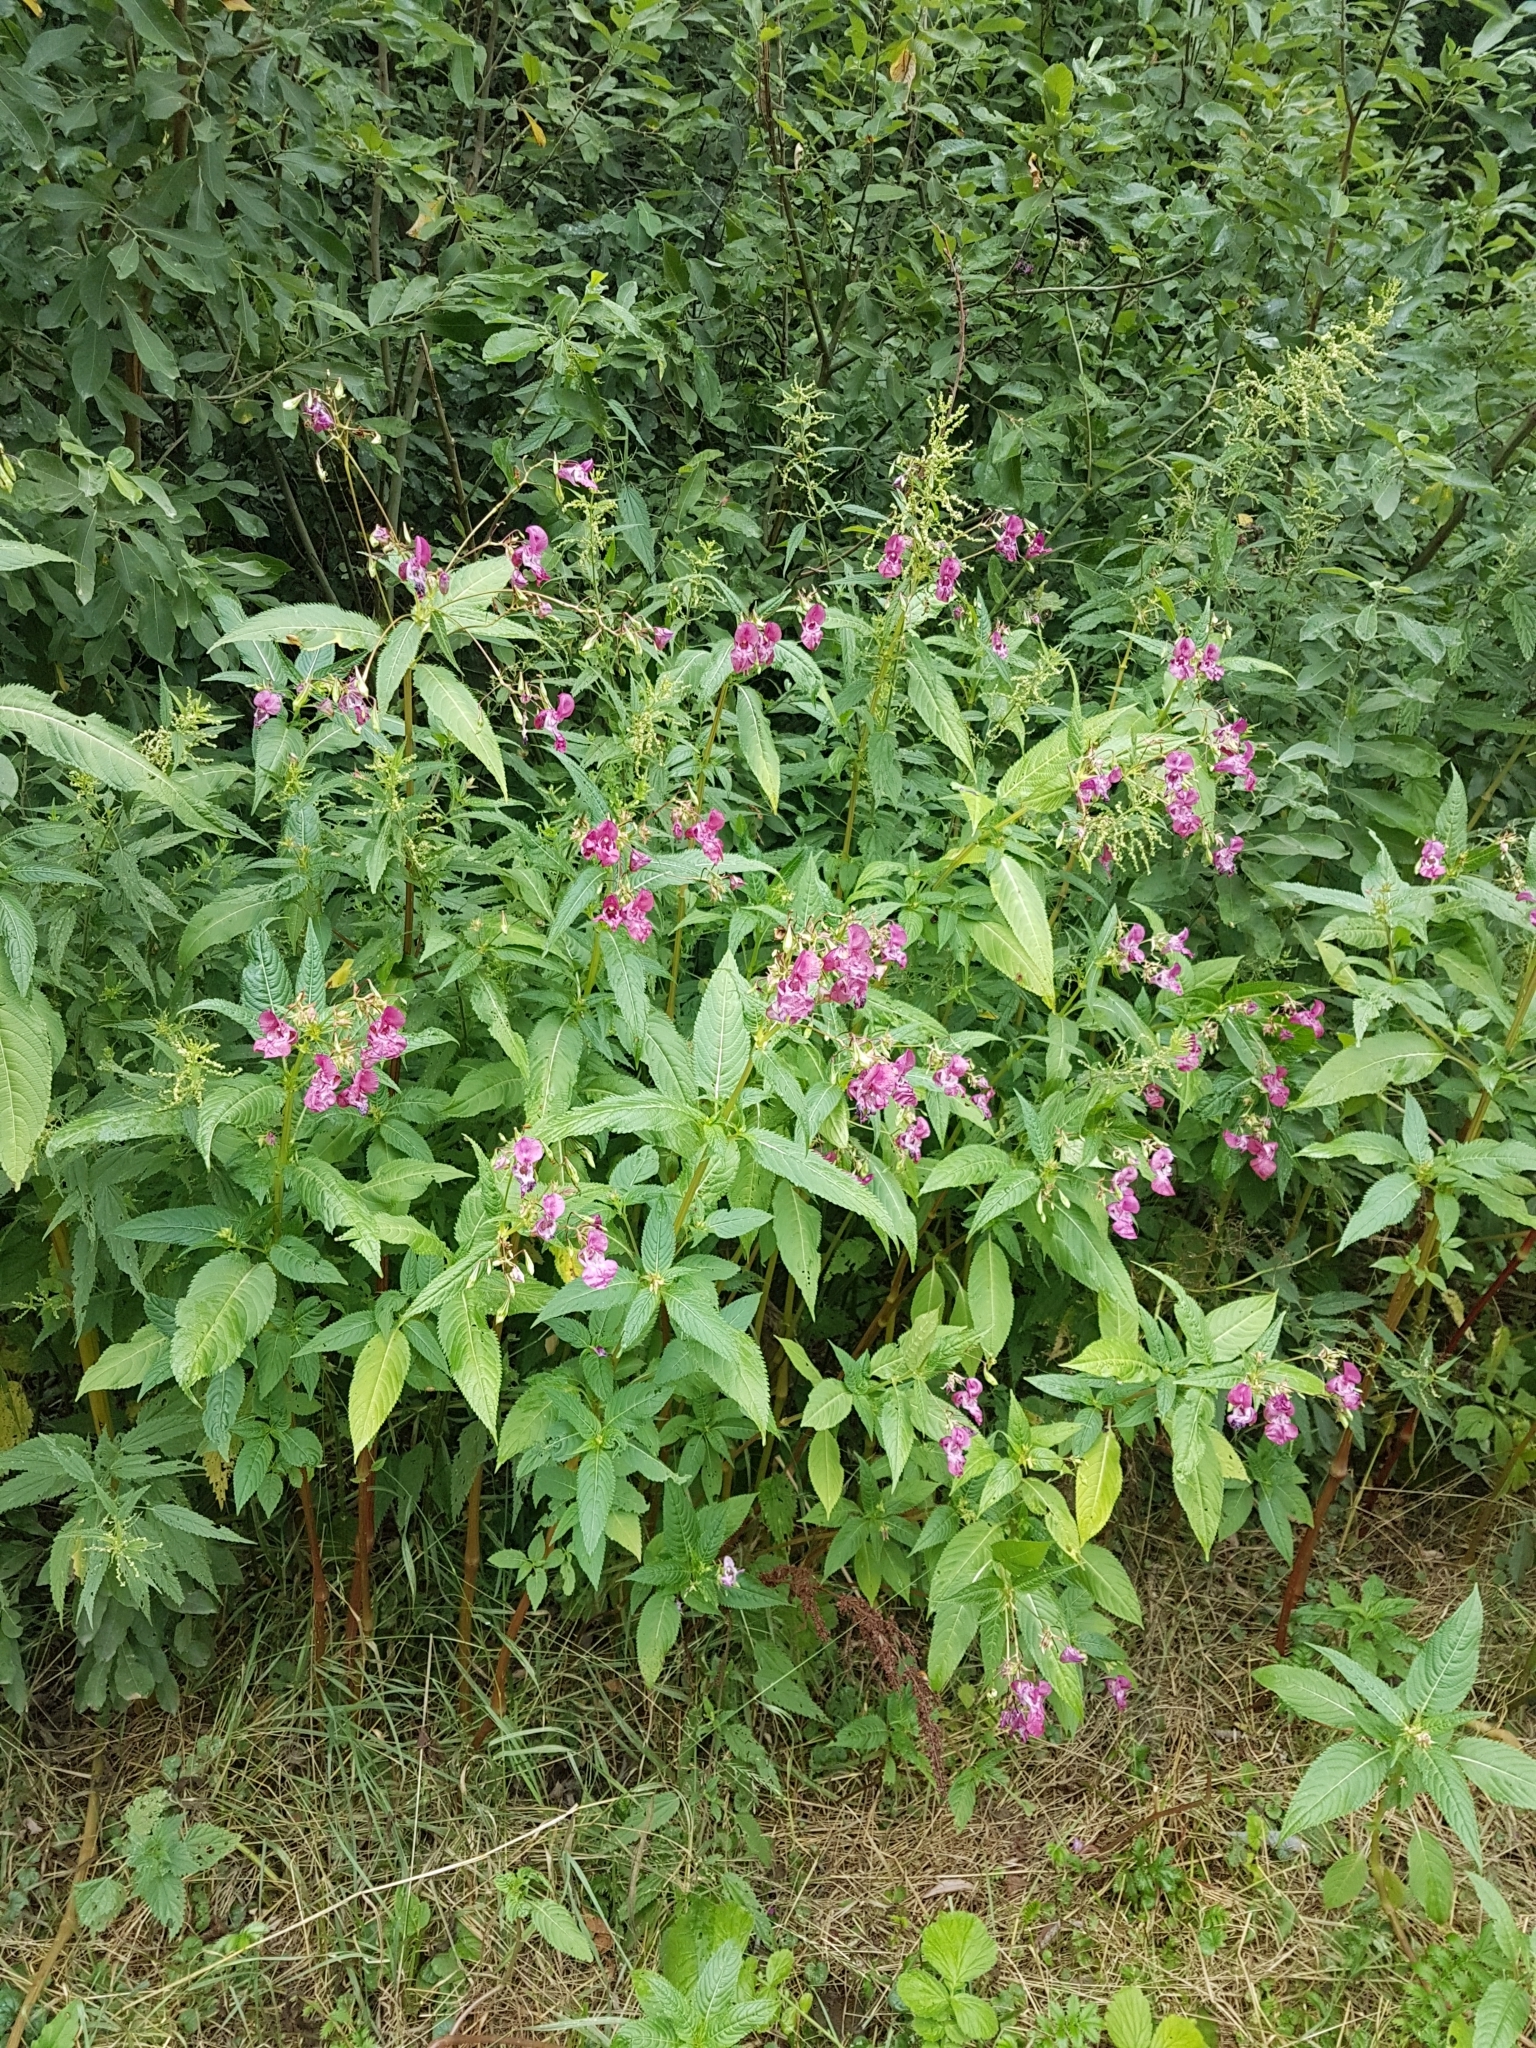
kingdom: Plantae
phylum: Tracheophyta
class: Magnoliopsida
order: Ericales
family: Balsaminaceae
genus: Impatiens
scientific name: Impatiens glandulifera
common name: Himalayan balsam
